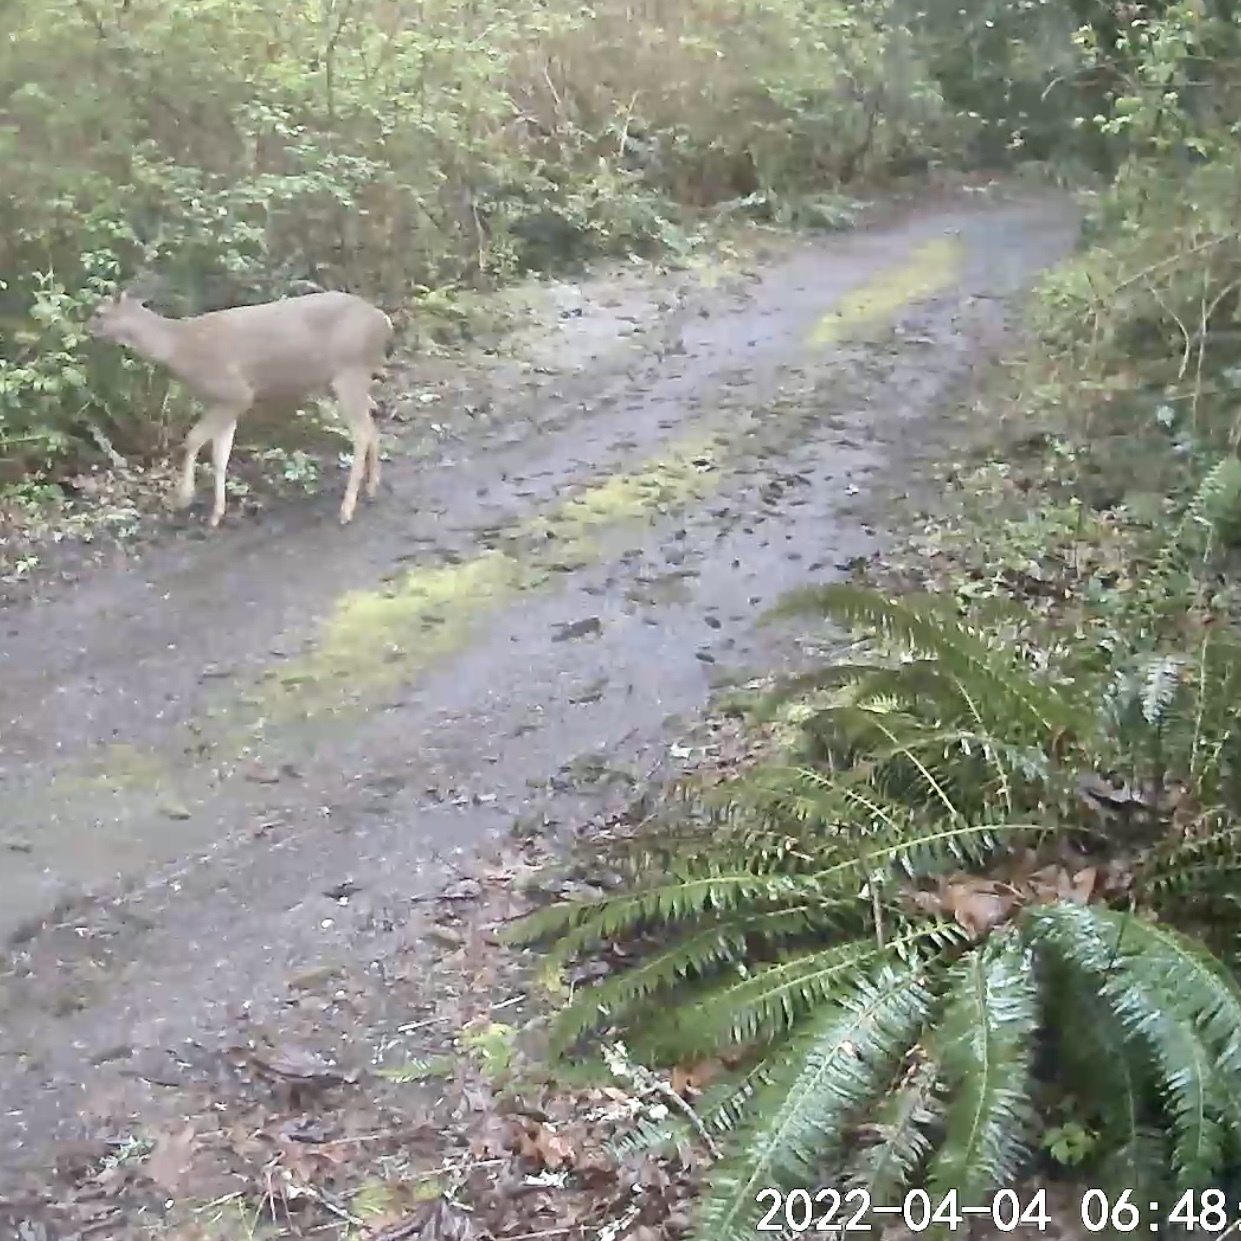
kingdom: Animalia
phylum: Chordata
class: Mammalia
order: Artiodactyla
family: Cervidae
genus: Odocoileus
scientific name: Odocoileus hemionus
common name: Mule deer
